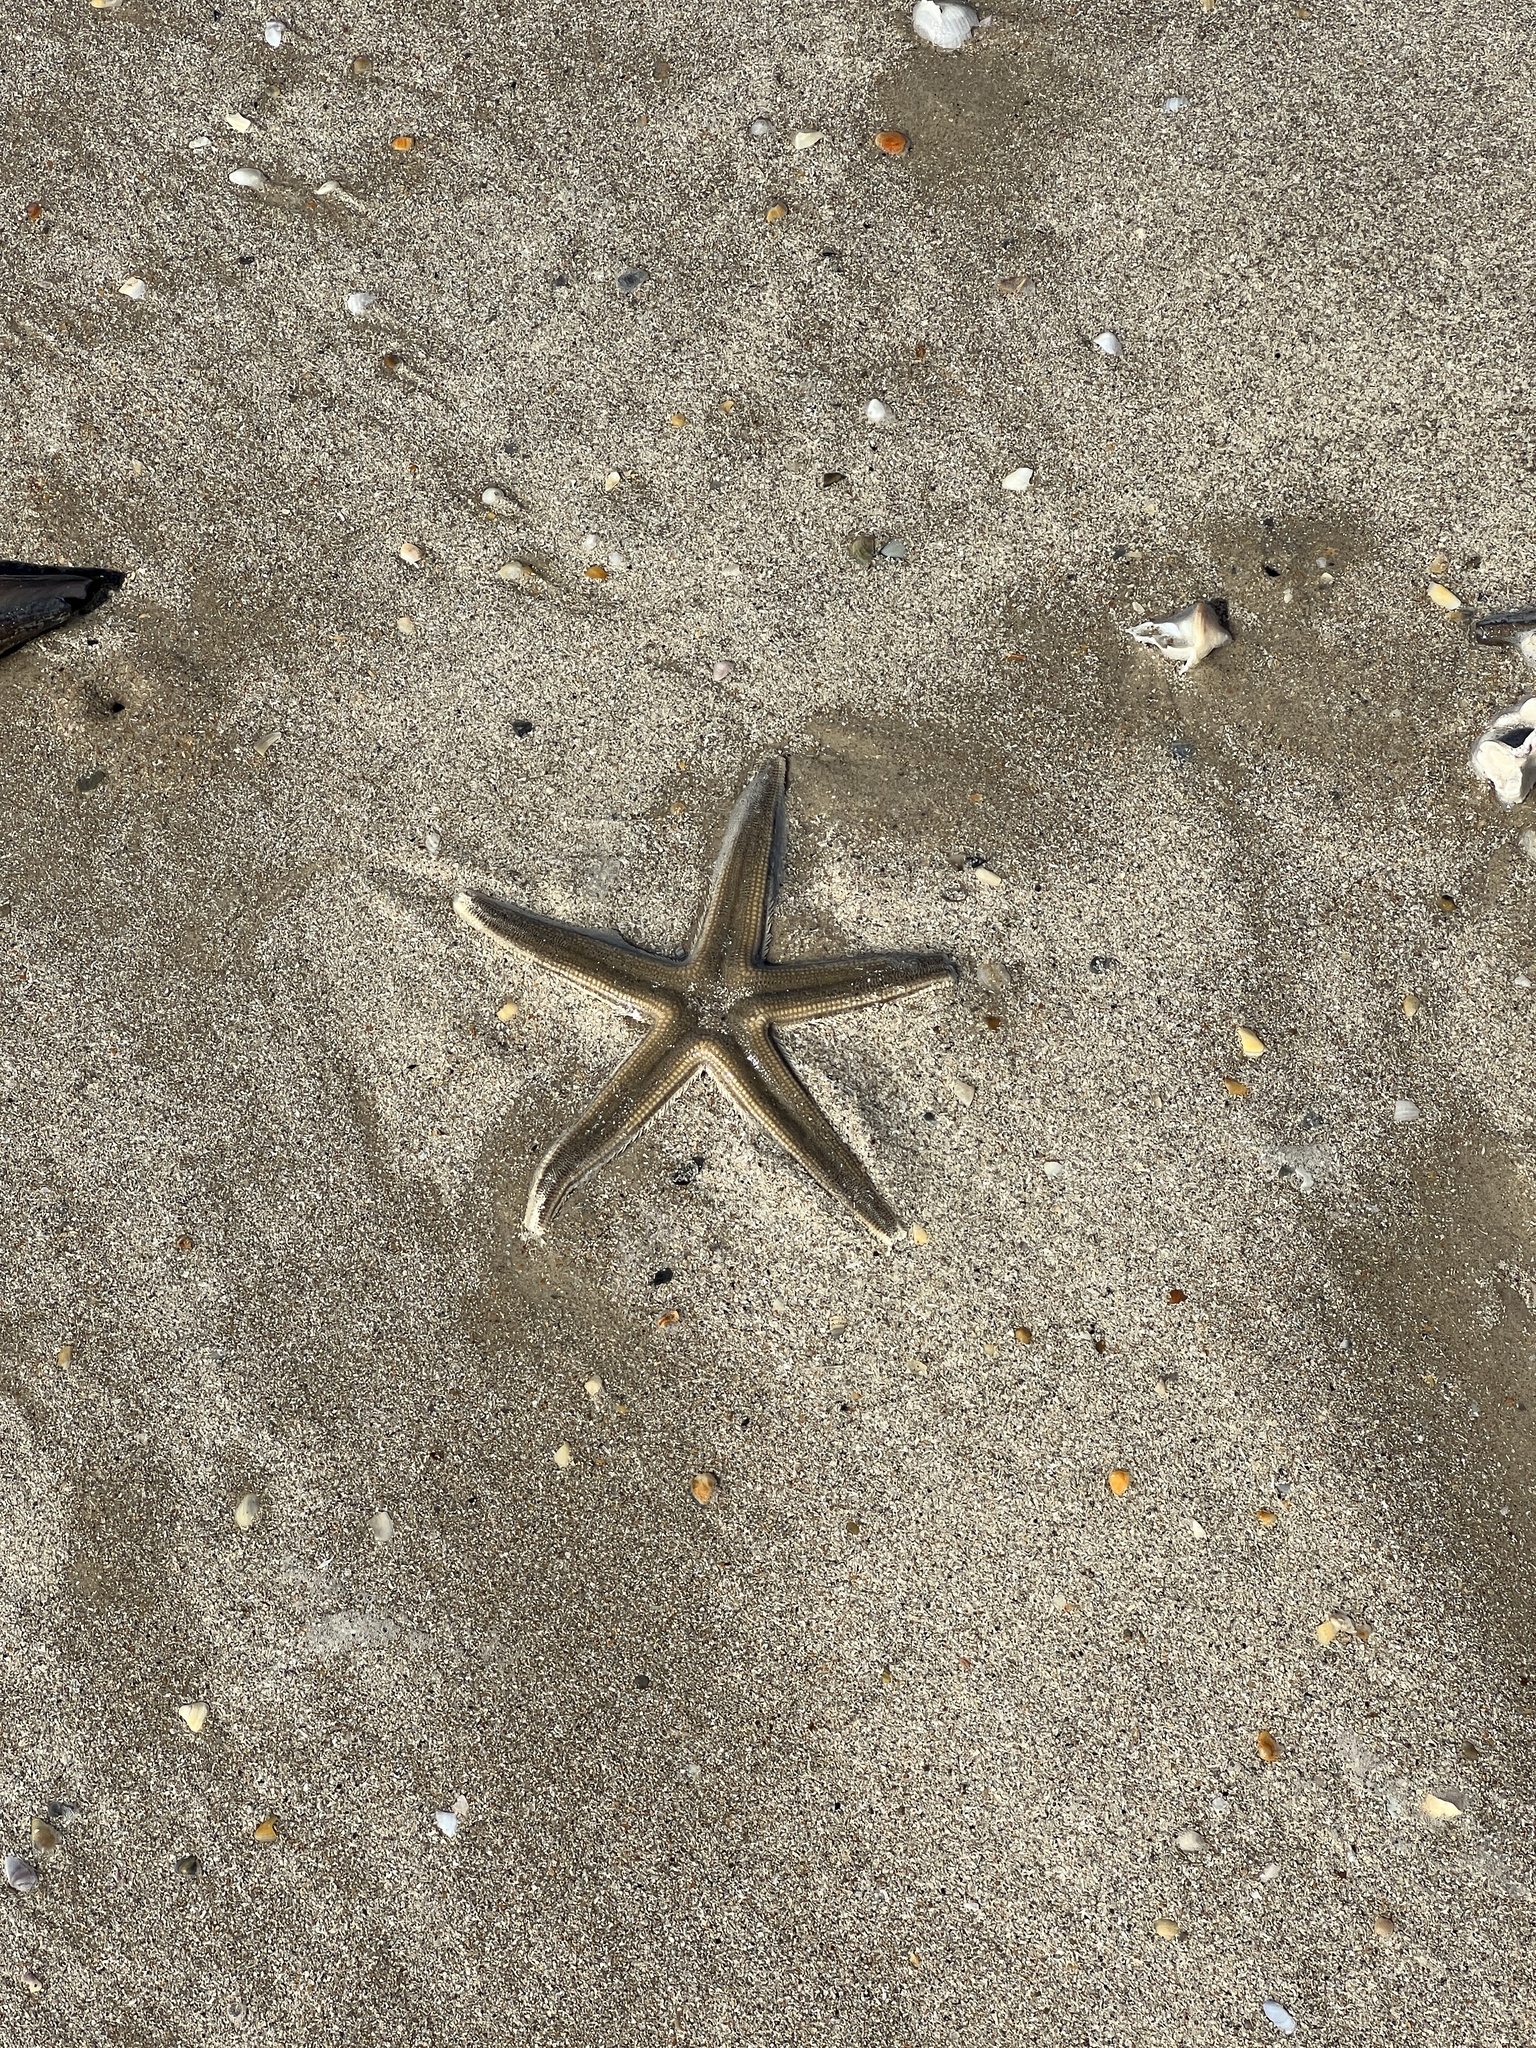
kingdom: Animalia
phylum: Echinodermata
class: Asteroidea
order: Paxillosida
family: Luidiidae
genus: Luidia
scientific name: Luidia clathrata
